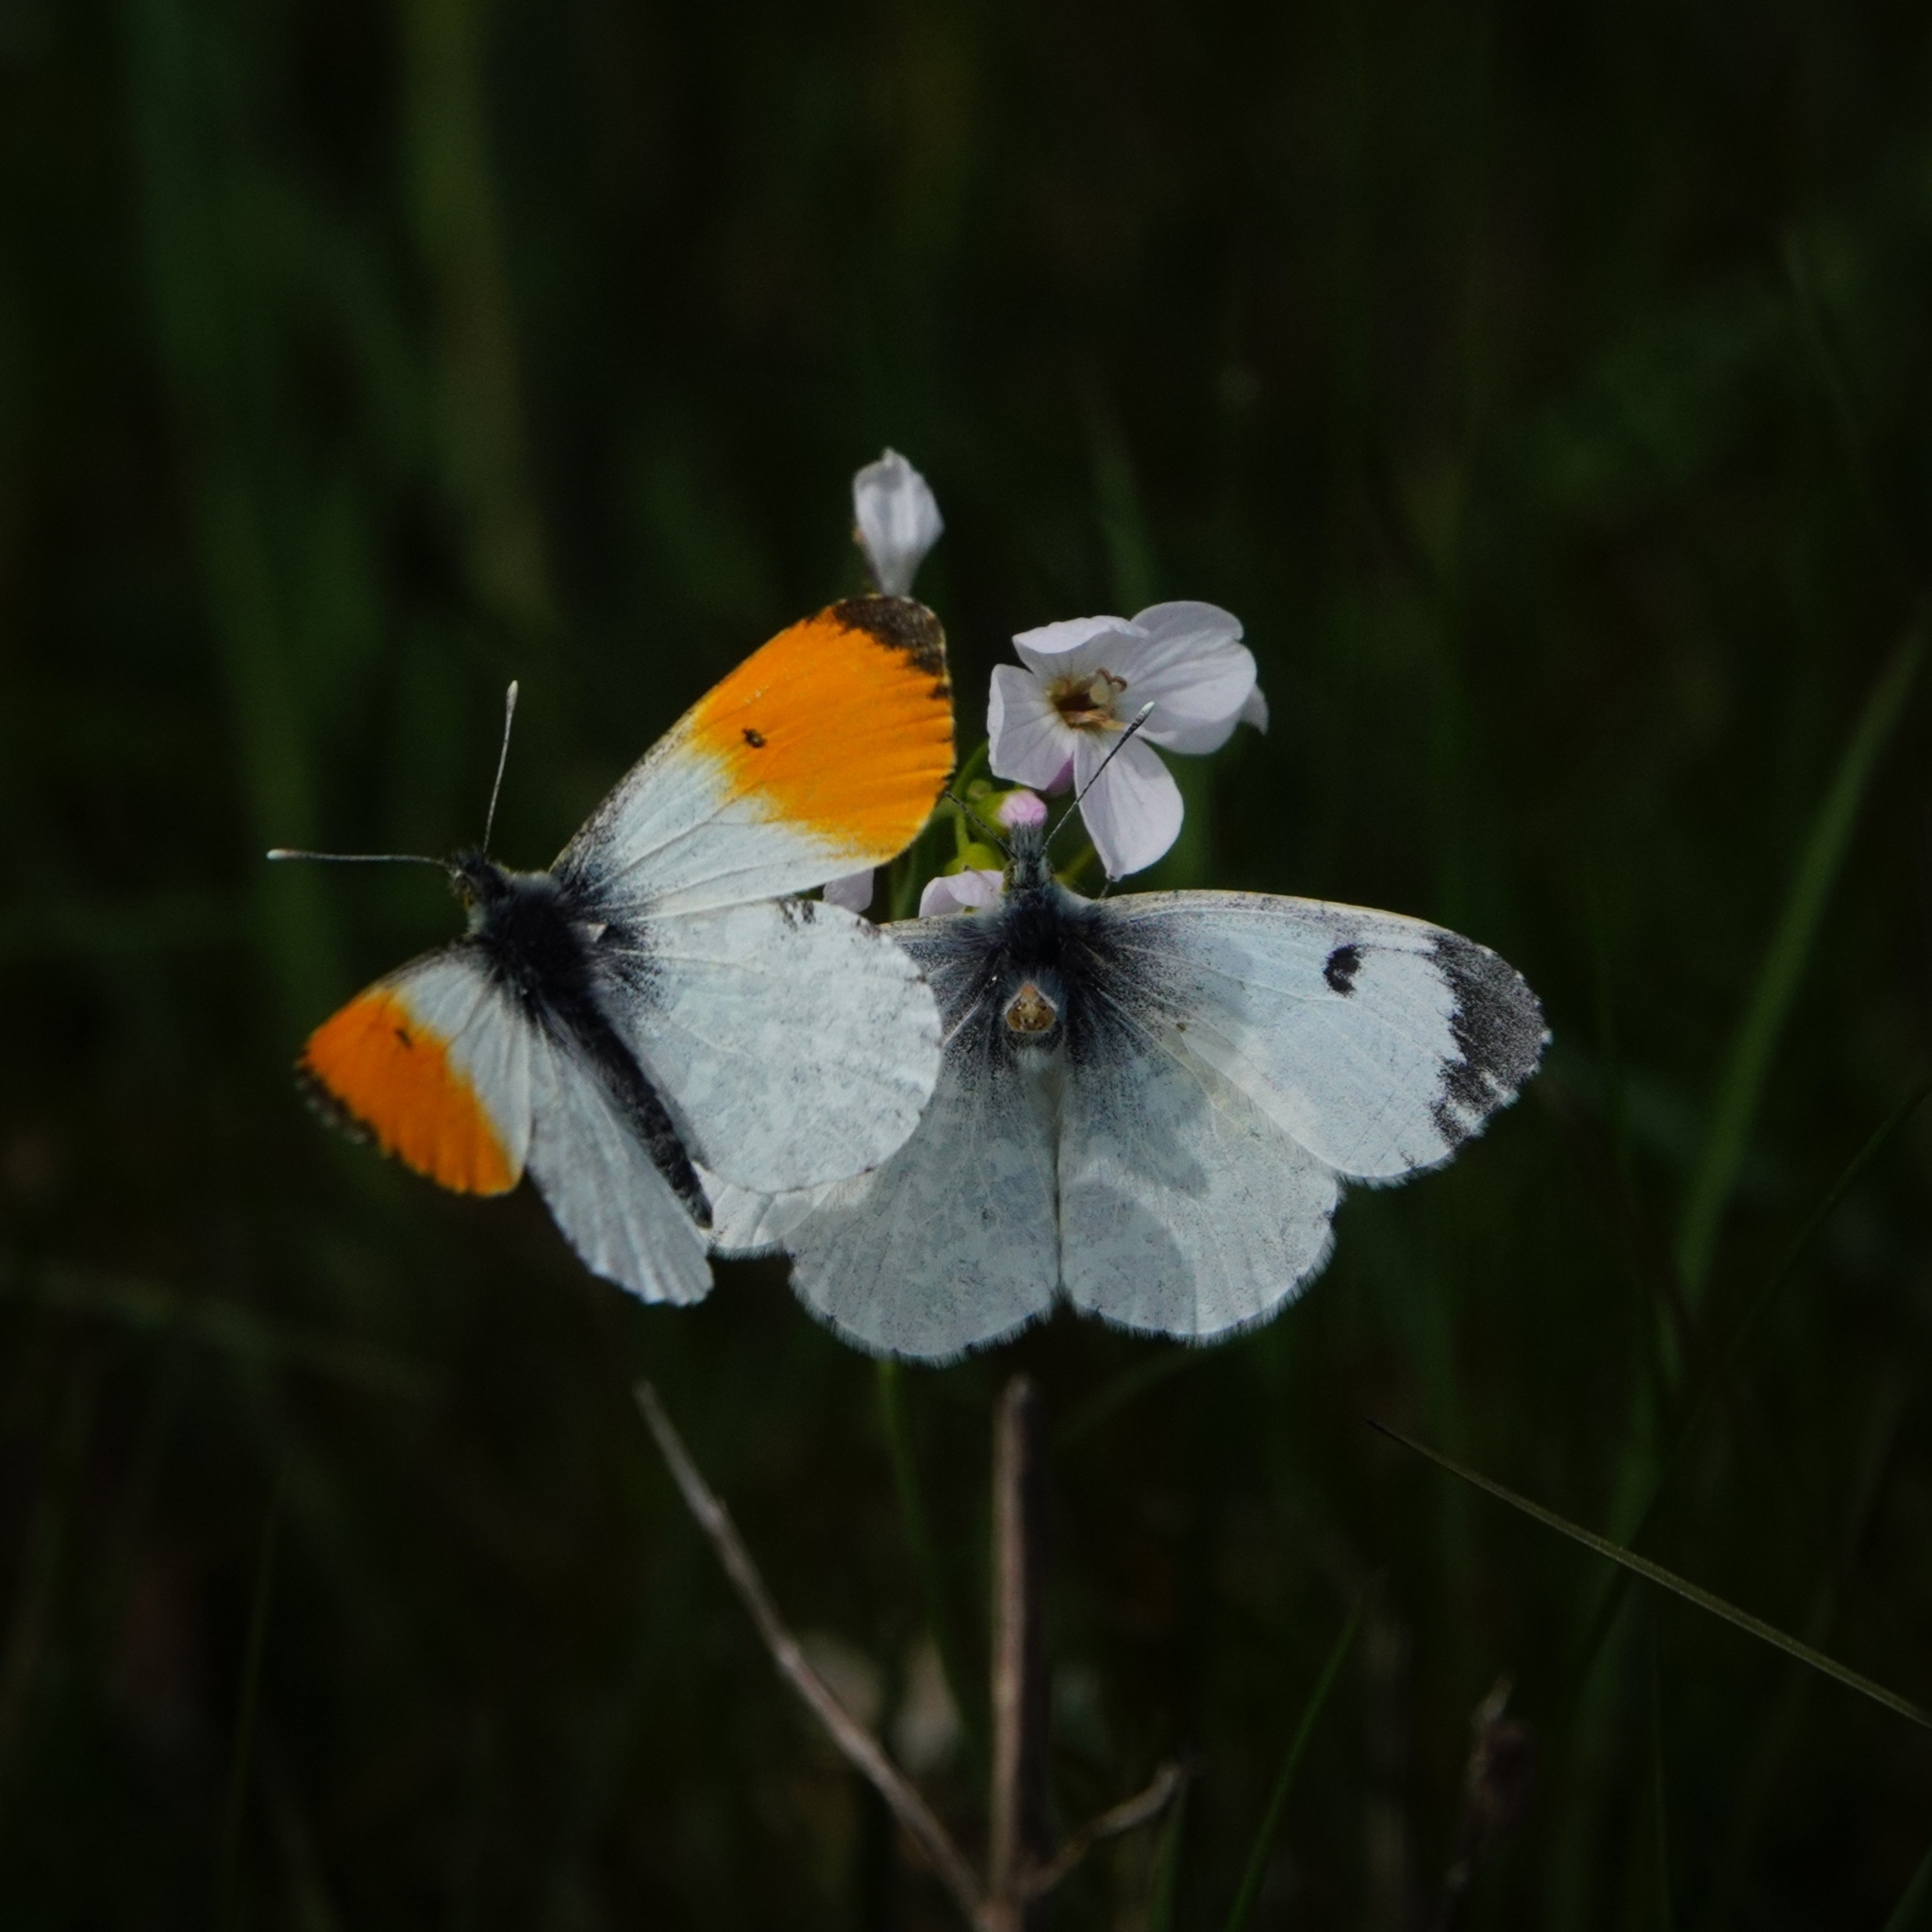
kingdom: Animalia
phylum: Arthropoda
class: Insecta
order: Lepidoptera
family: Pieridae
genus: Anthocharis
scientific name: Anthocharis cardamines
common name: Orange-tip
